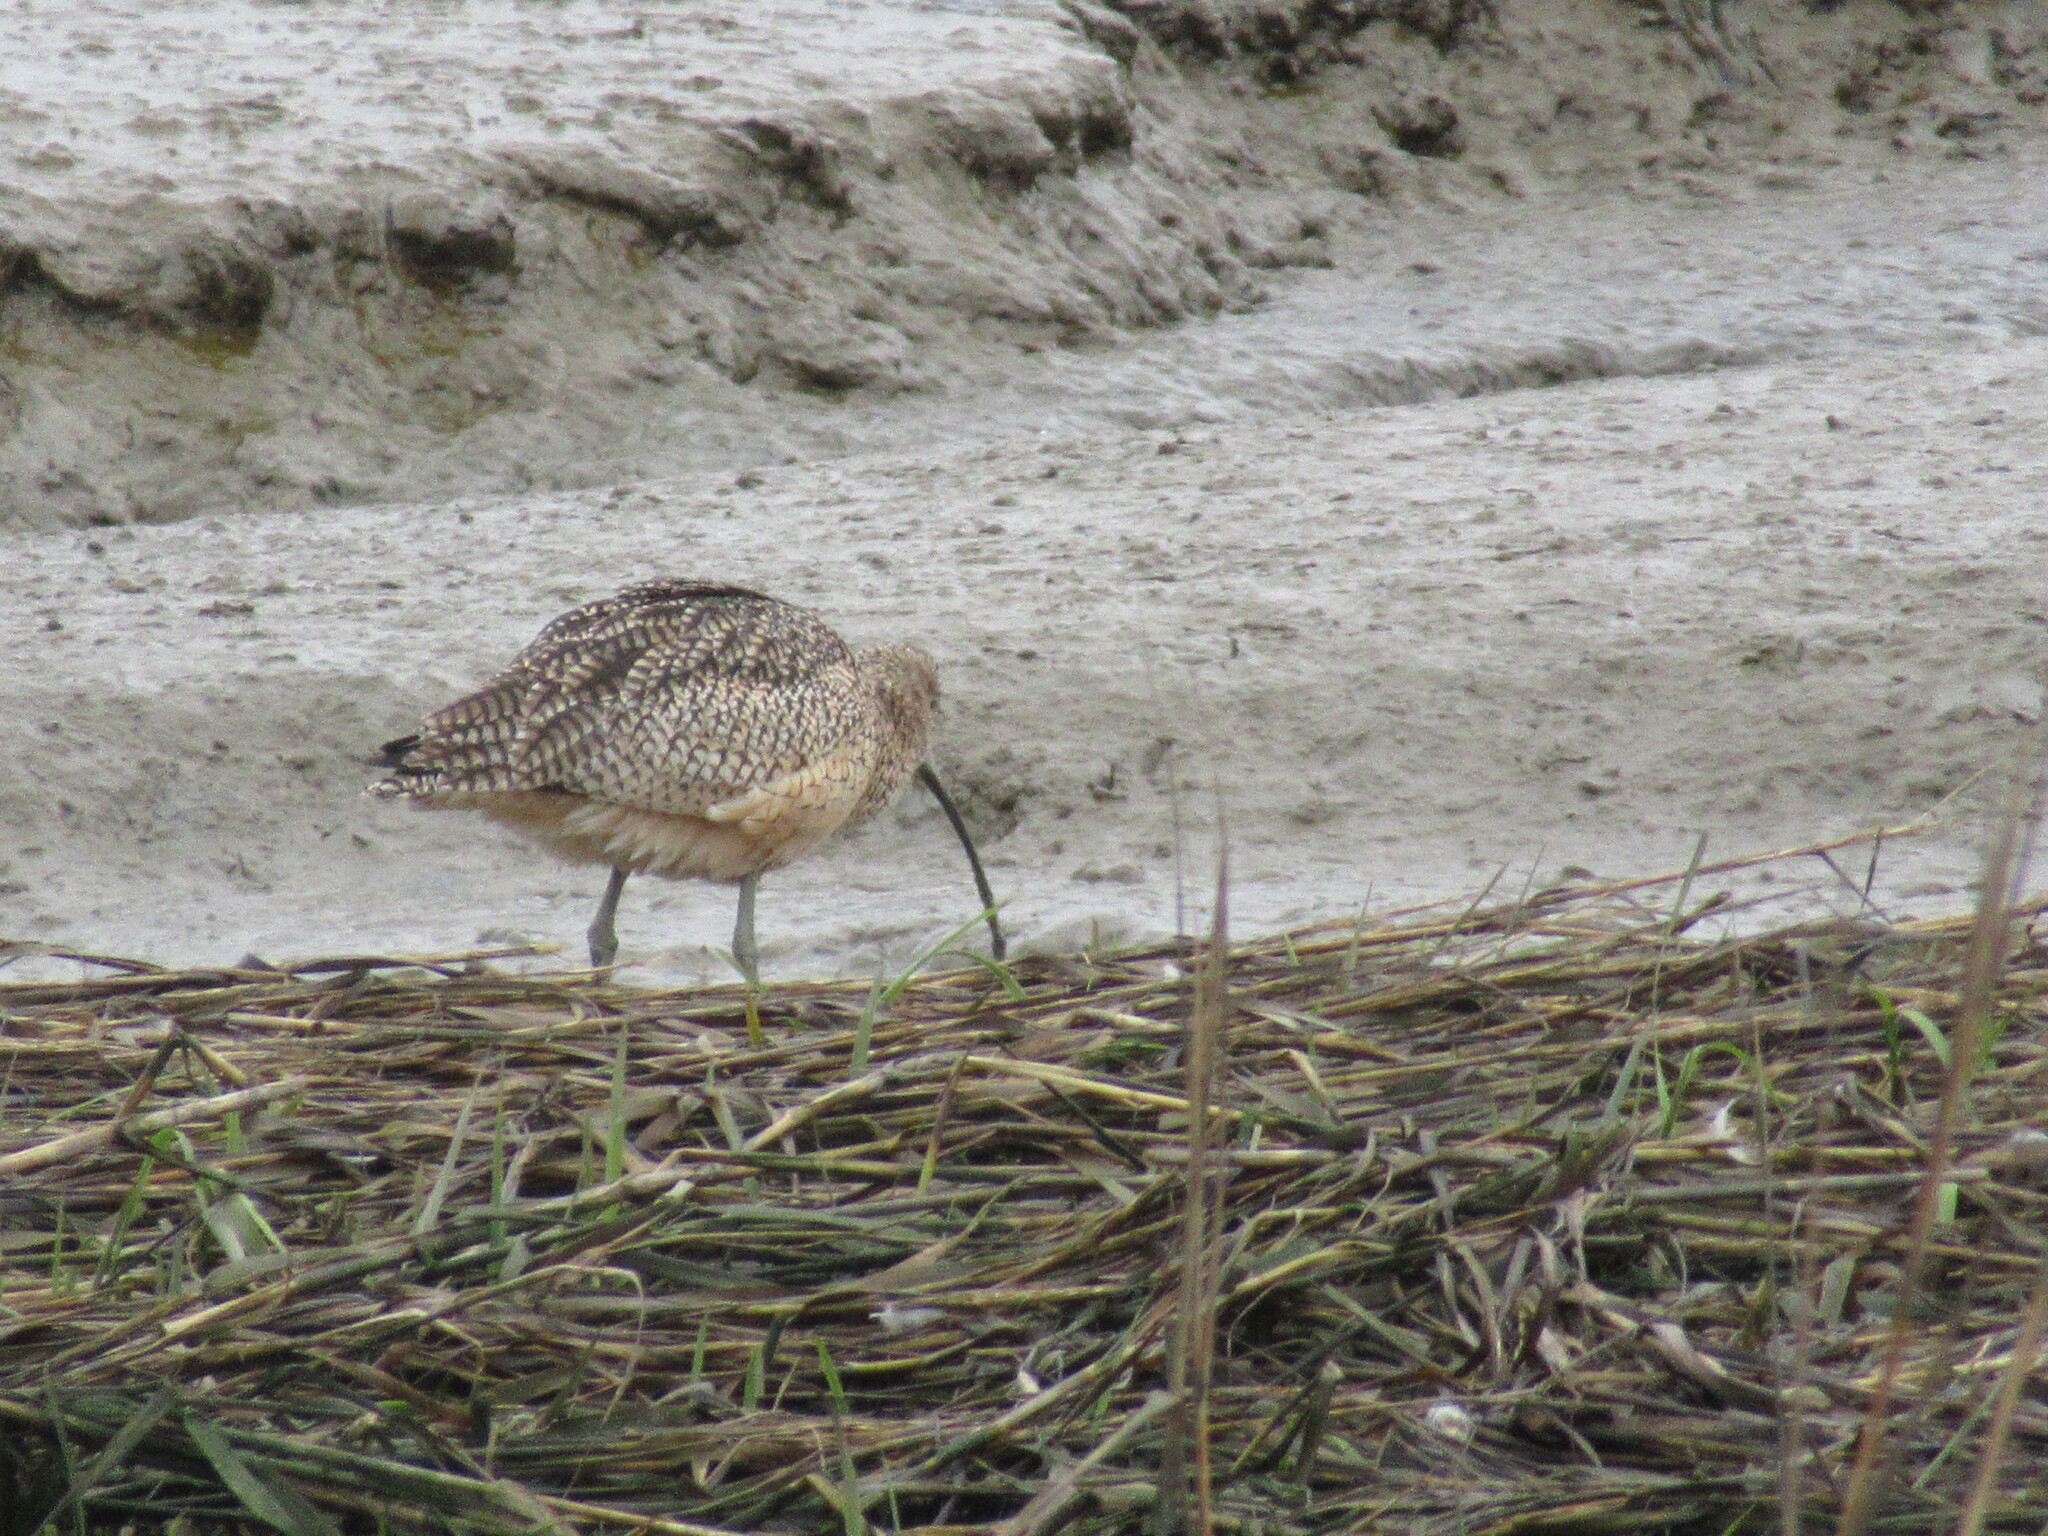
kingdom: Animalia
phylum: Chordata
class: Aves
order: Charadriiformes
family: Scolopacidae
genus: Numenius
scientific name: Numenius americanus
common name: Long-billed curlew
